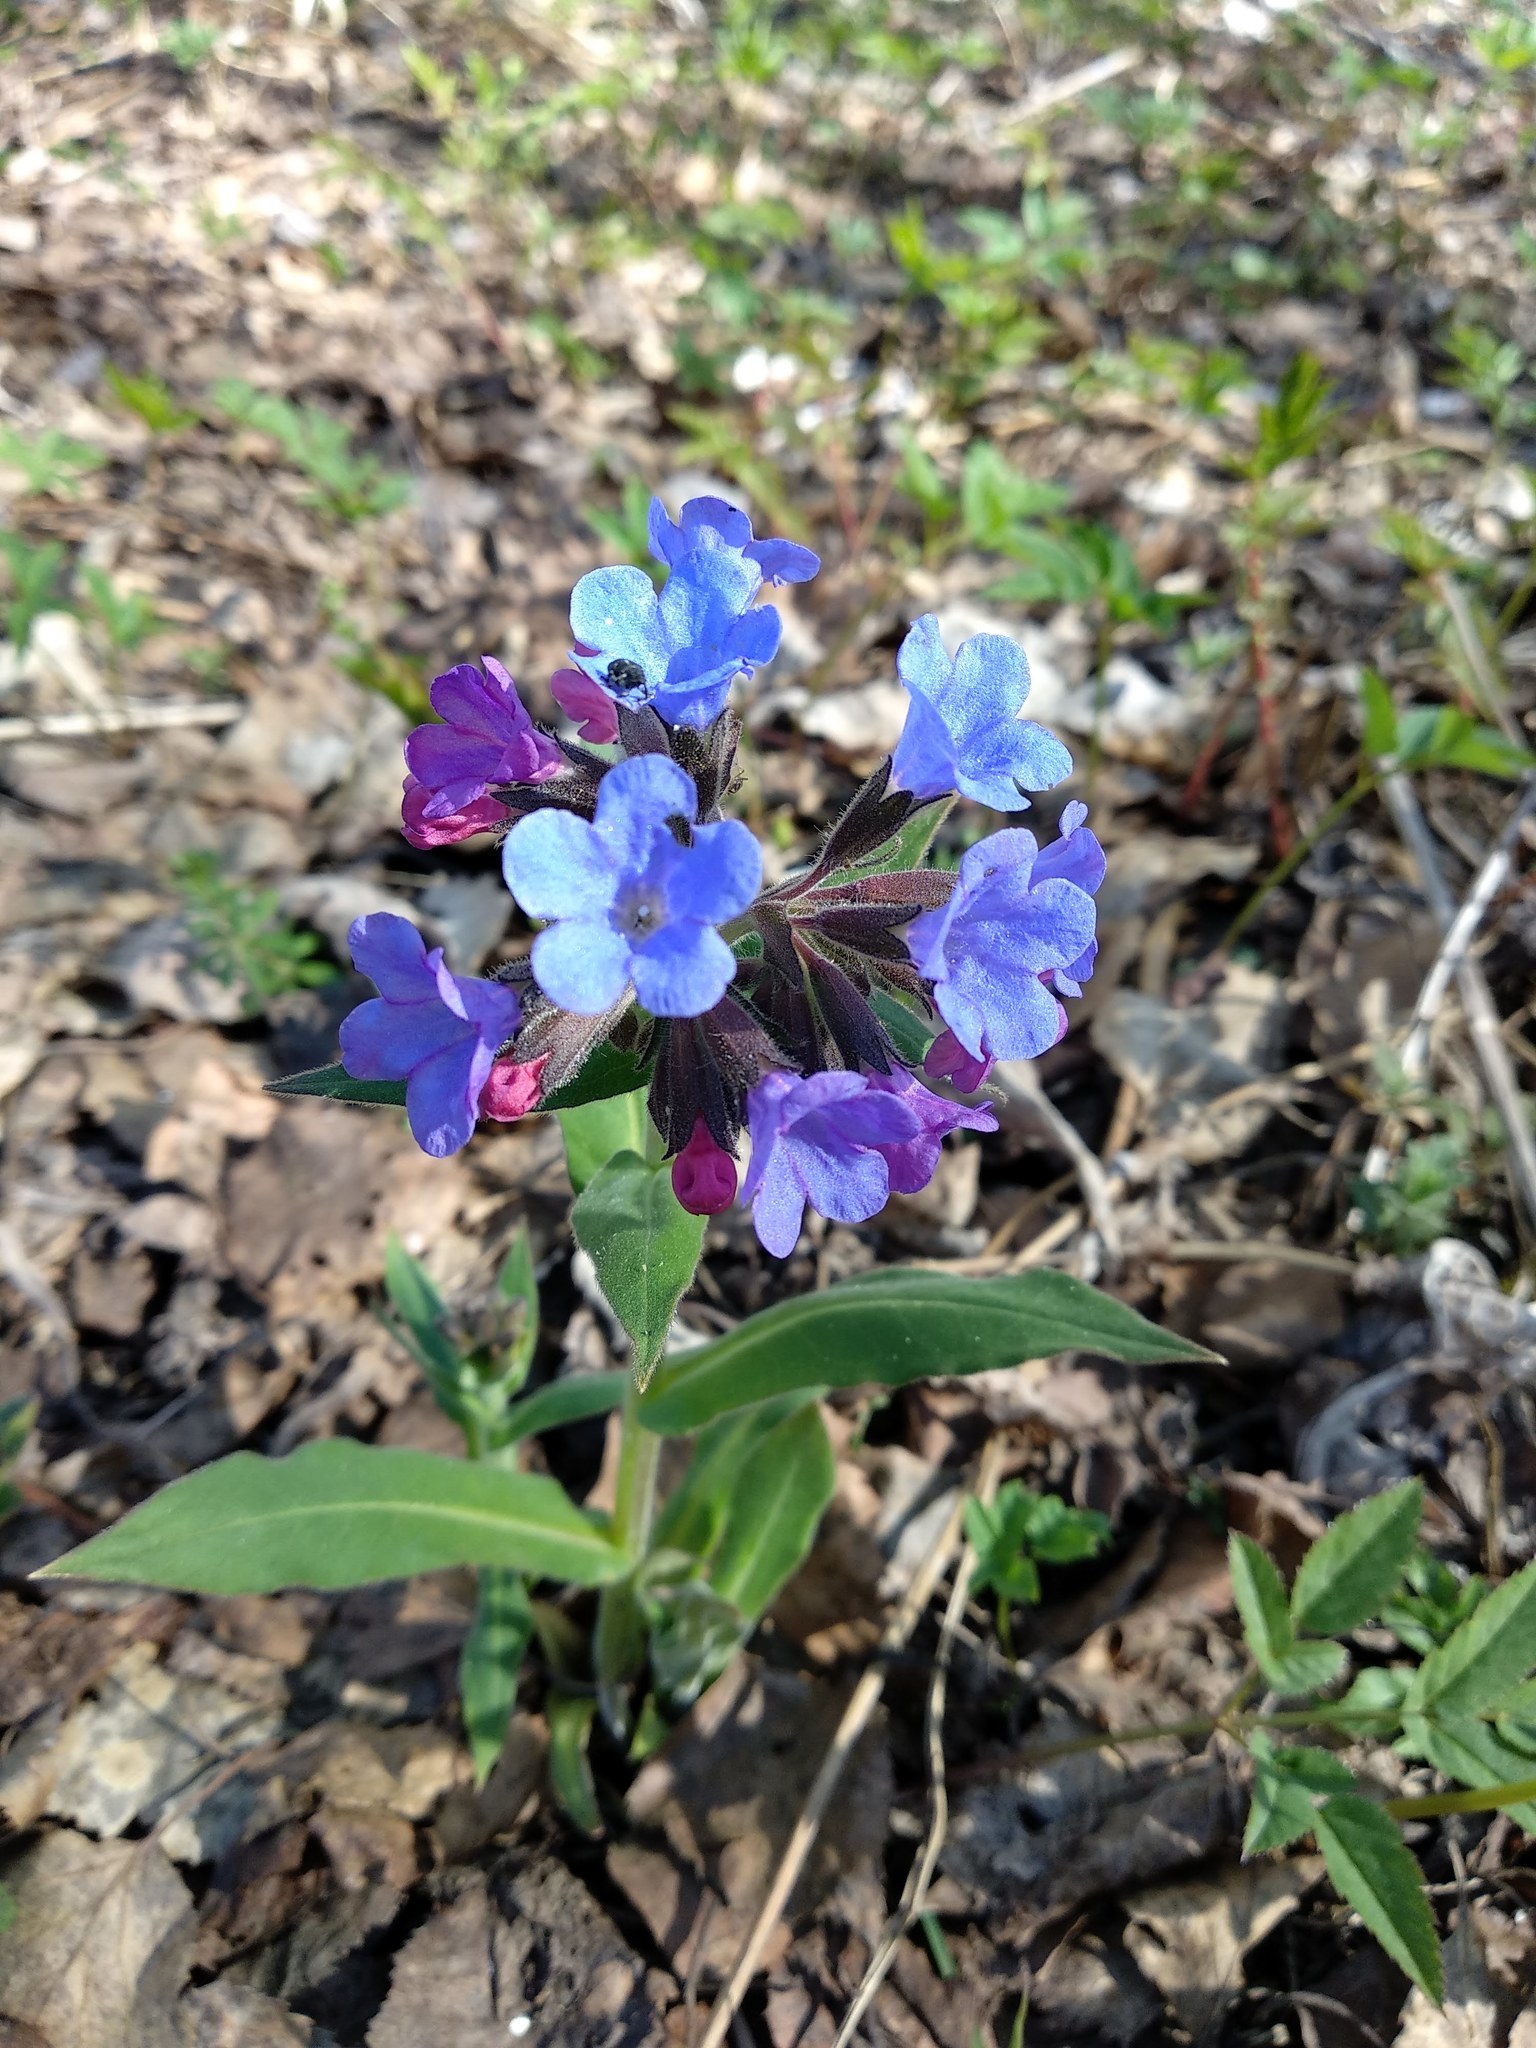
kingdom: Plantae
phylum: Tracheophyta
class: Magnoliopsida
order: Boraginales
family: Boraginaceae
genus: Pulmonaria
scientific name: Pulmonaria mollis
